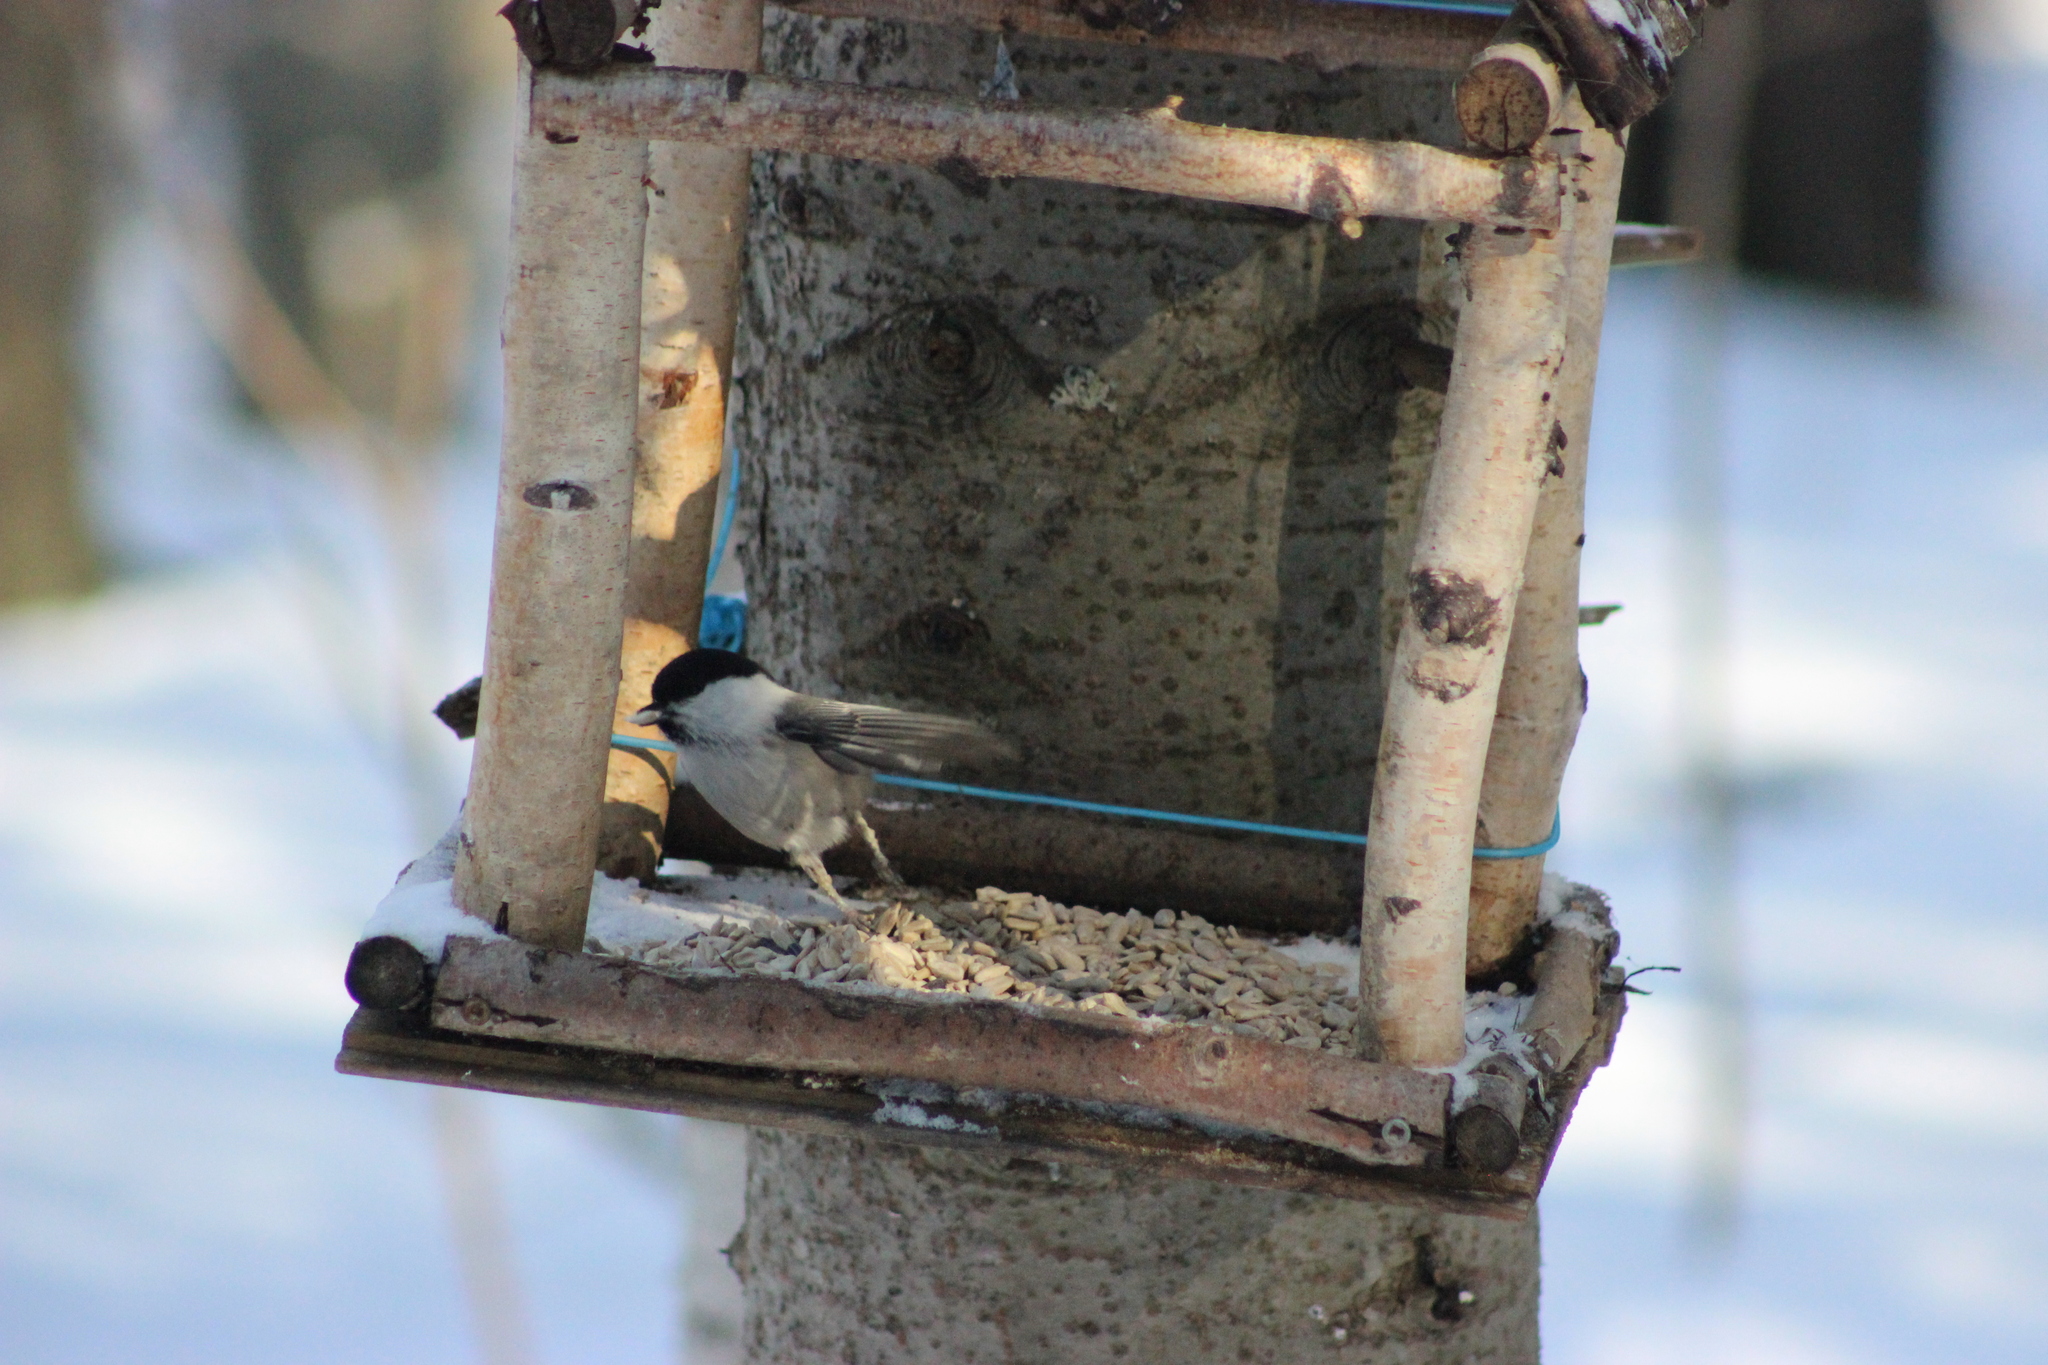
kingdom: Animalia
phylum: Chordata
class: Aves
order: Passeriformes
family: Paridae
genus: Poecile
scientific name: Poecile montanus
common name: Willow tit
